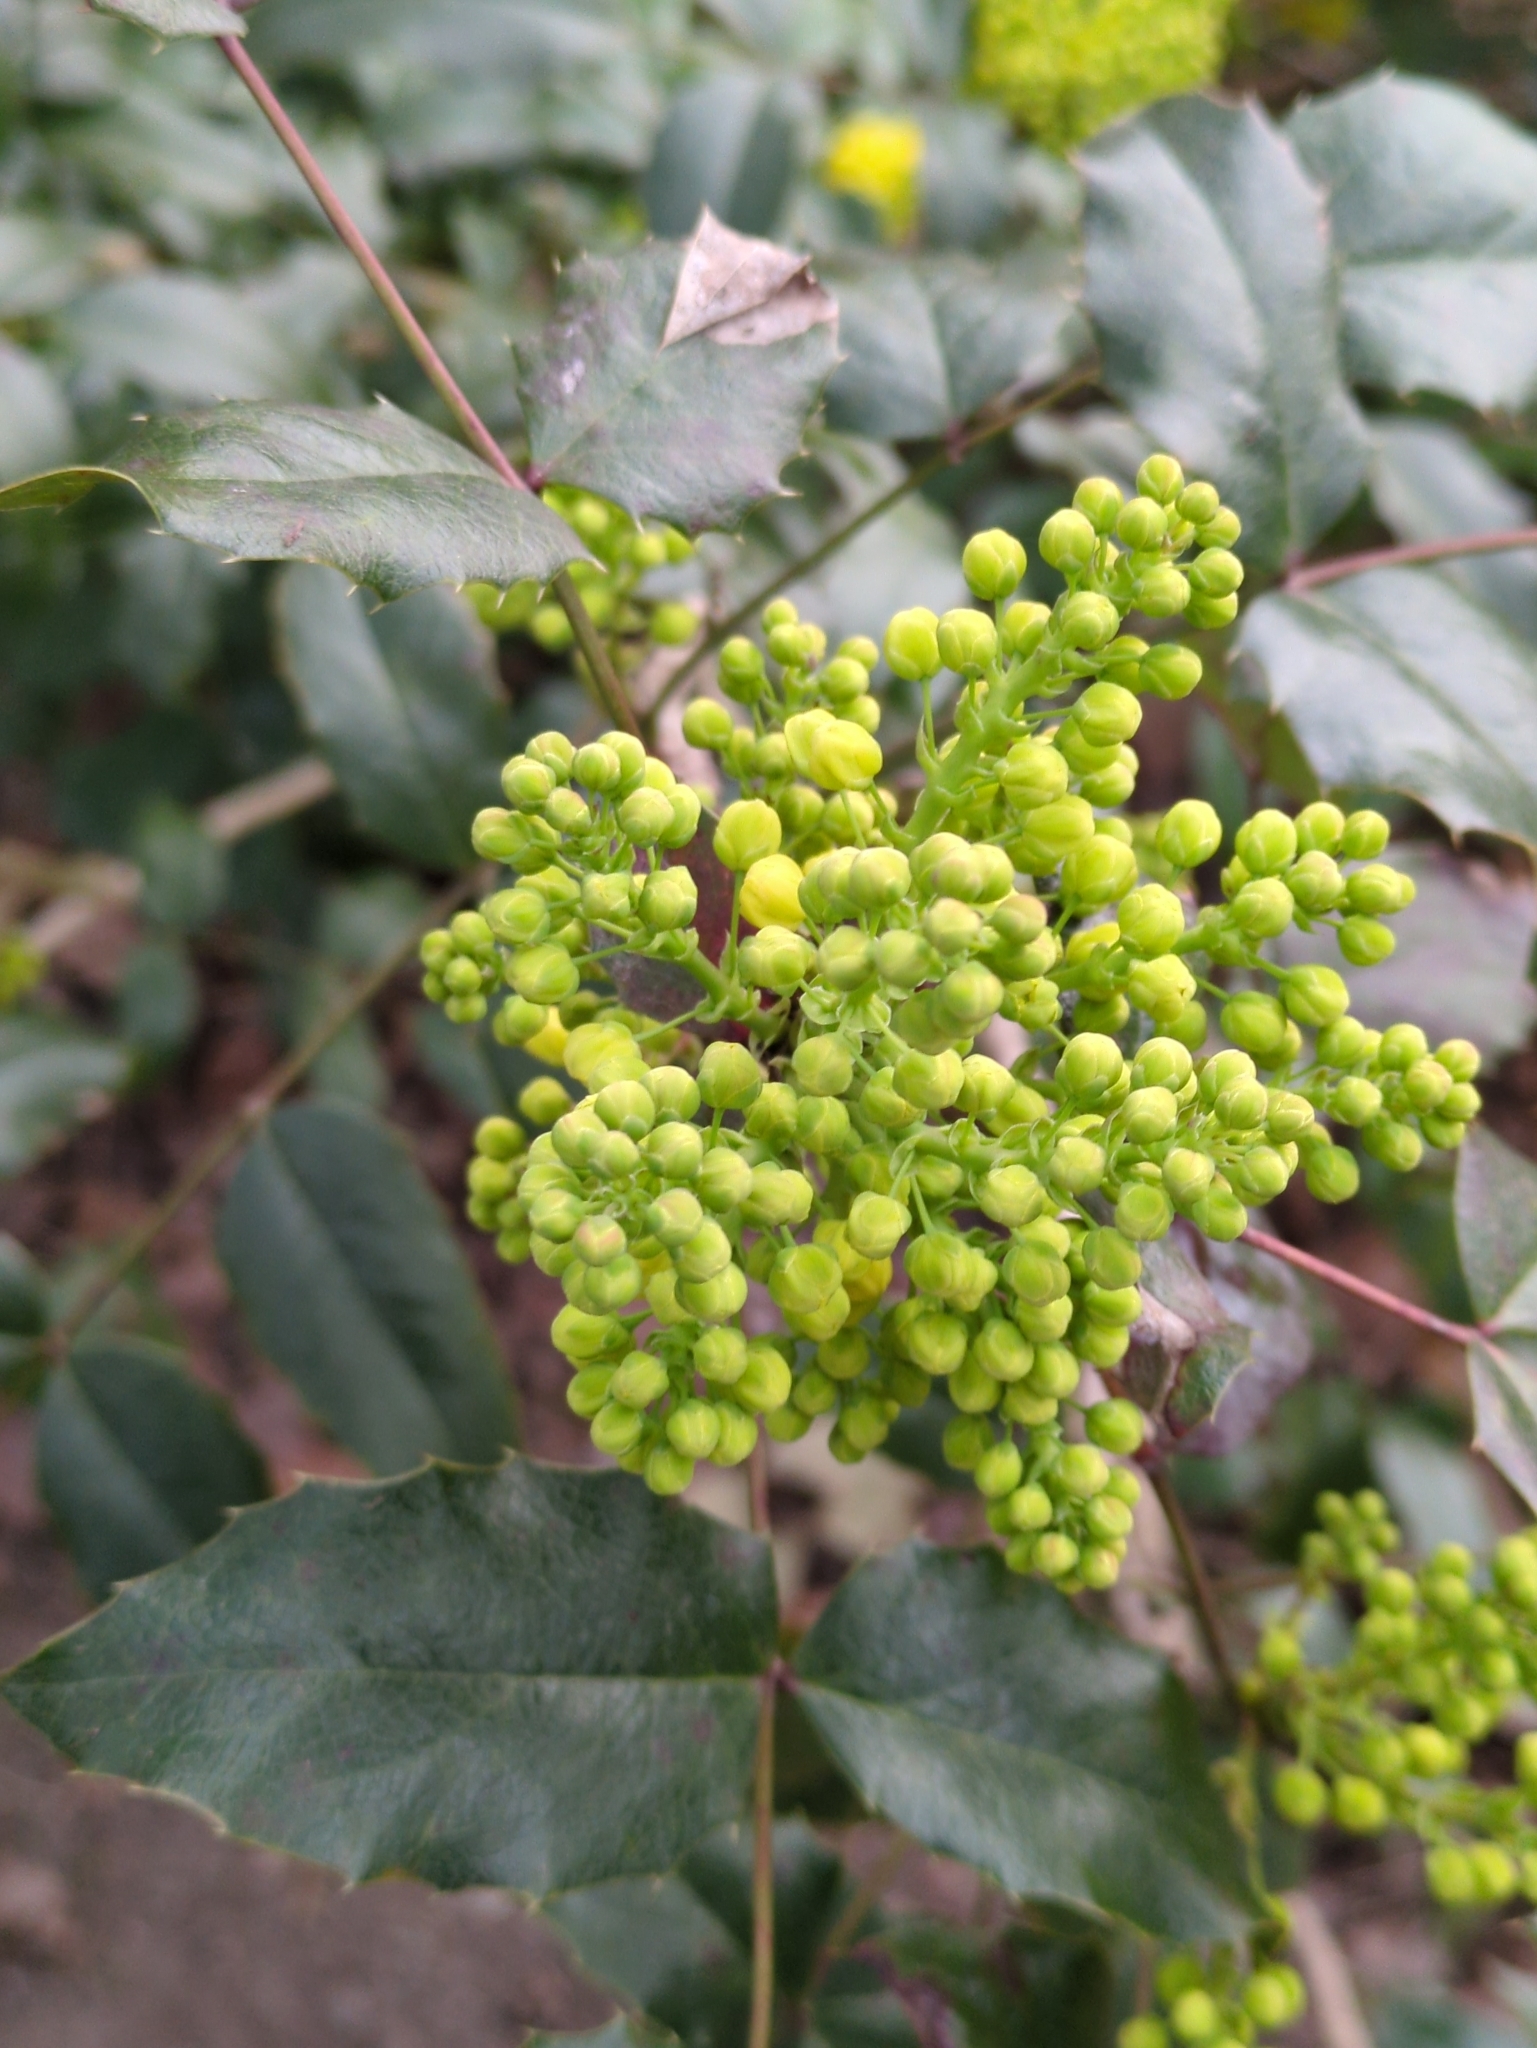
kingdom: Plantae
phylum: Tracheophyta
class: Magnoliopsida
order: Ranunculales
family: Berberidaceae
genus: Mahonia
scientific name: Mahonia aquifolium
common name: Oregon-grape
